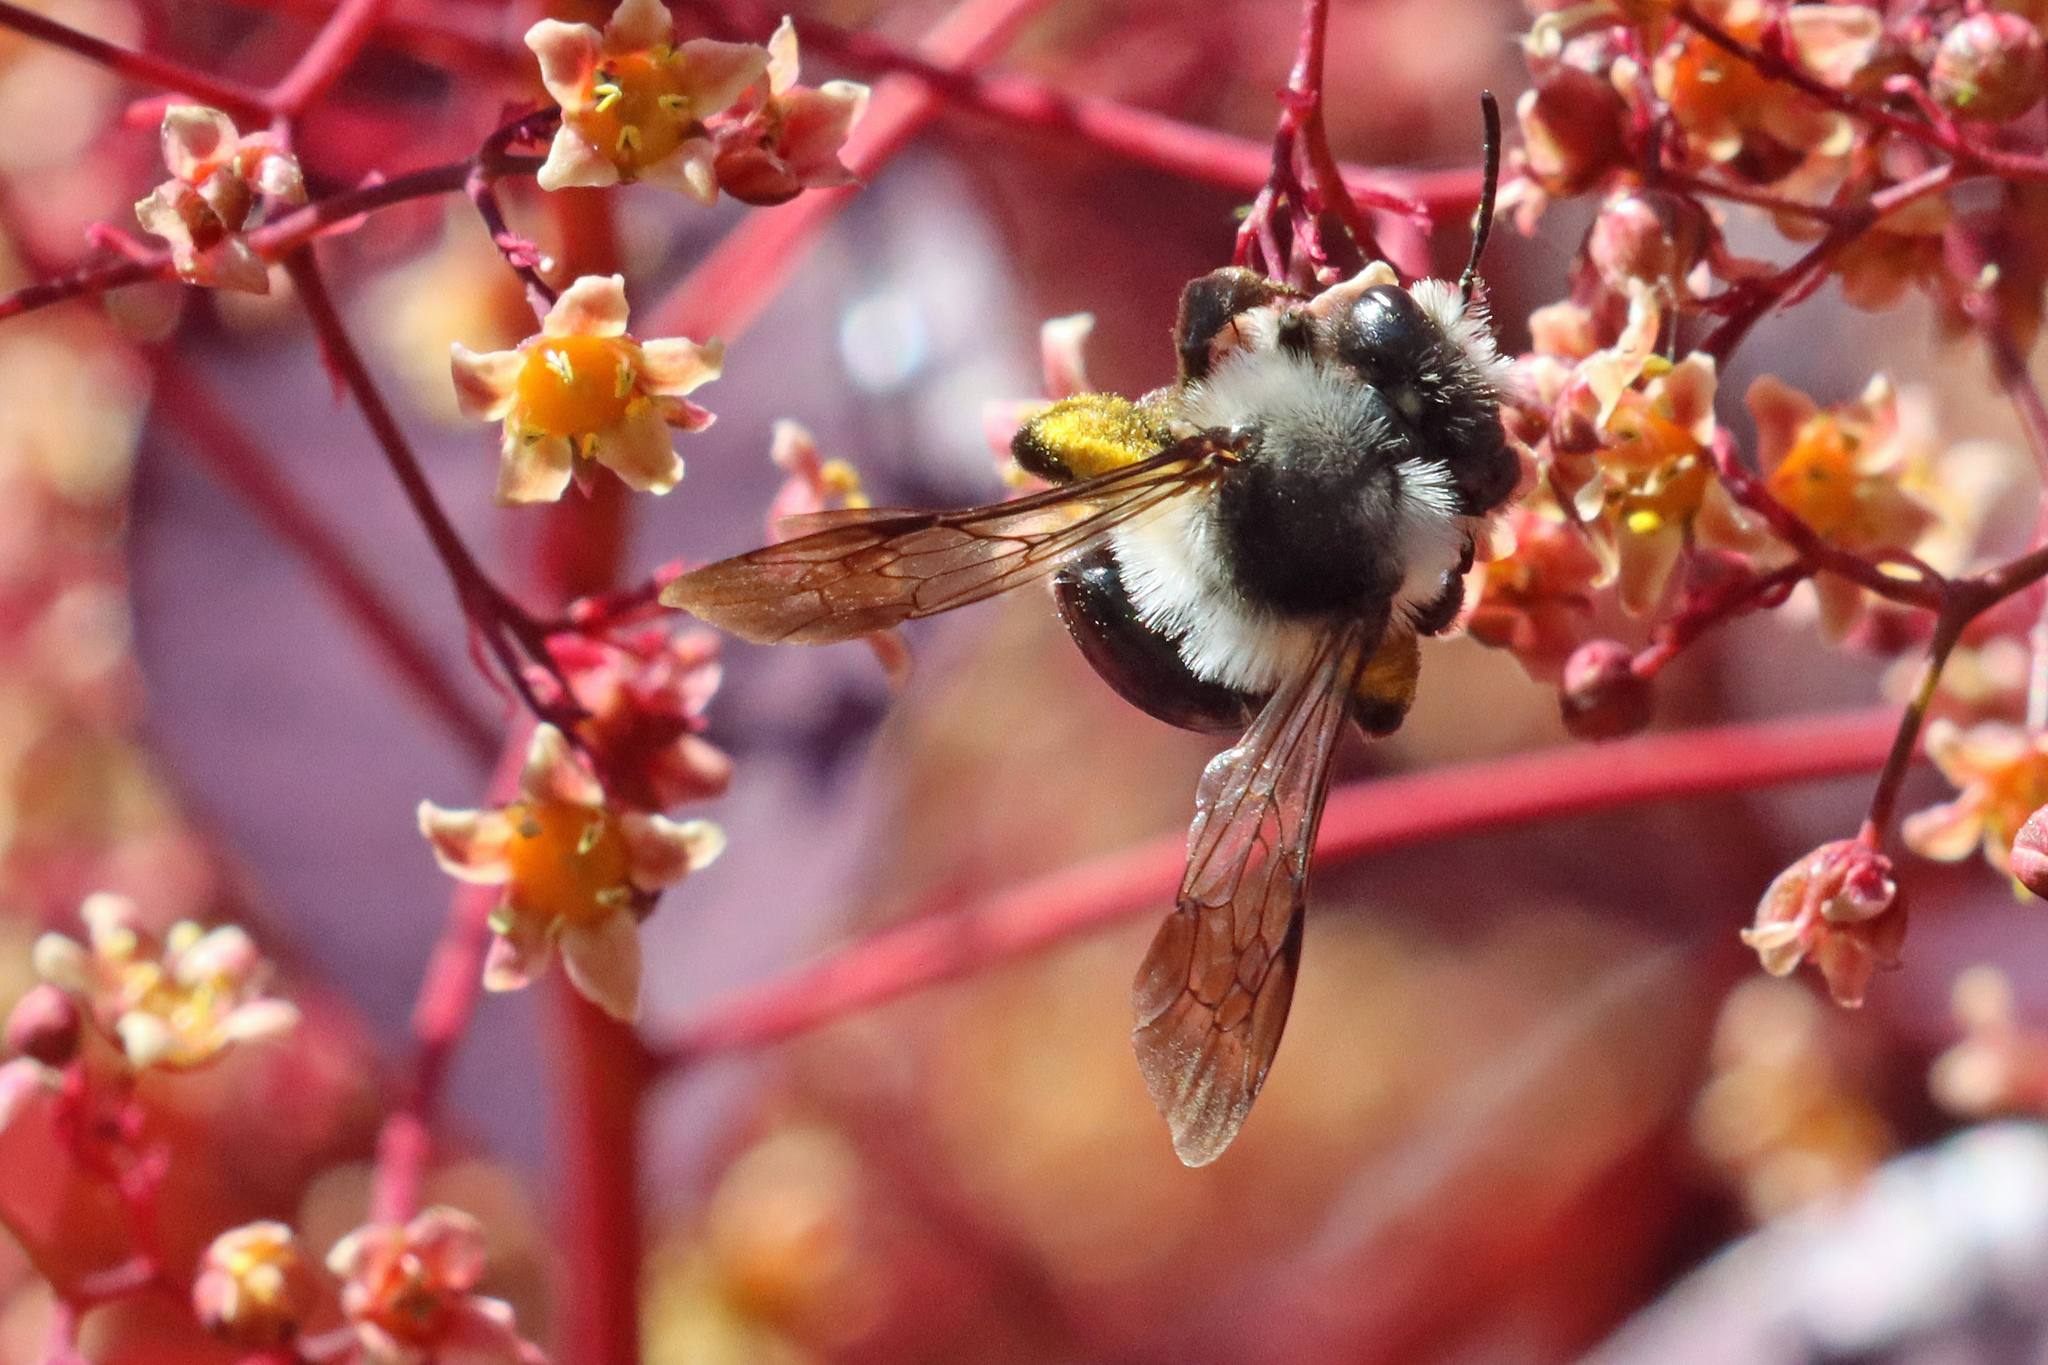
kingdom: Animalia
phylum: Arthropoda
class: Insecta
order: Hymenoptera
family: Andrenidae
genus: Andrena
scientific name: Andrena cineraria
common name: Ashy mining bee
